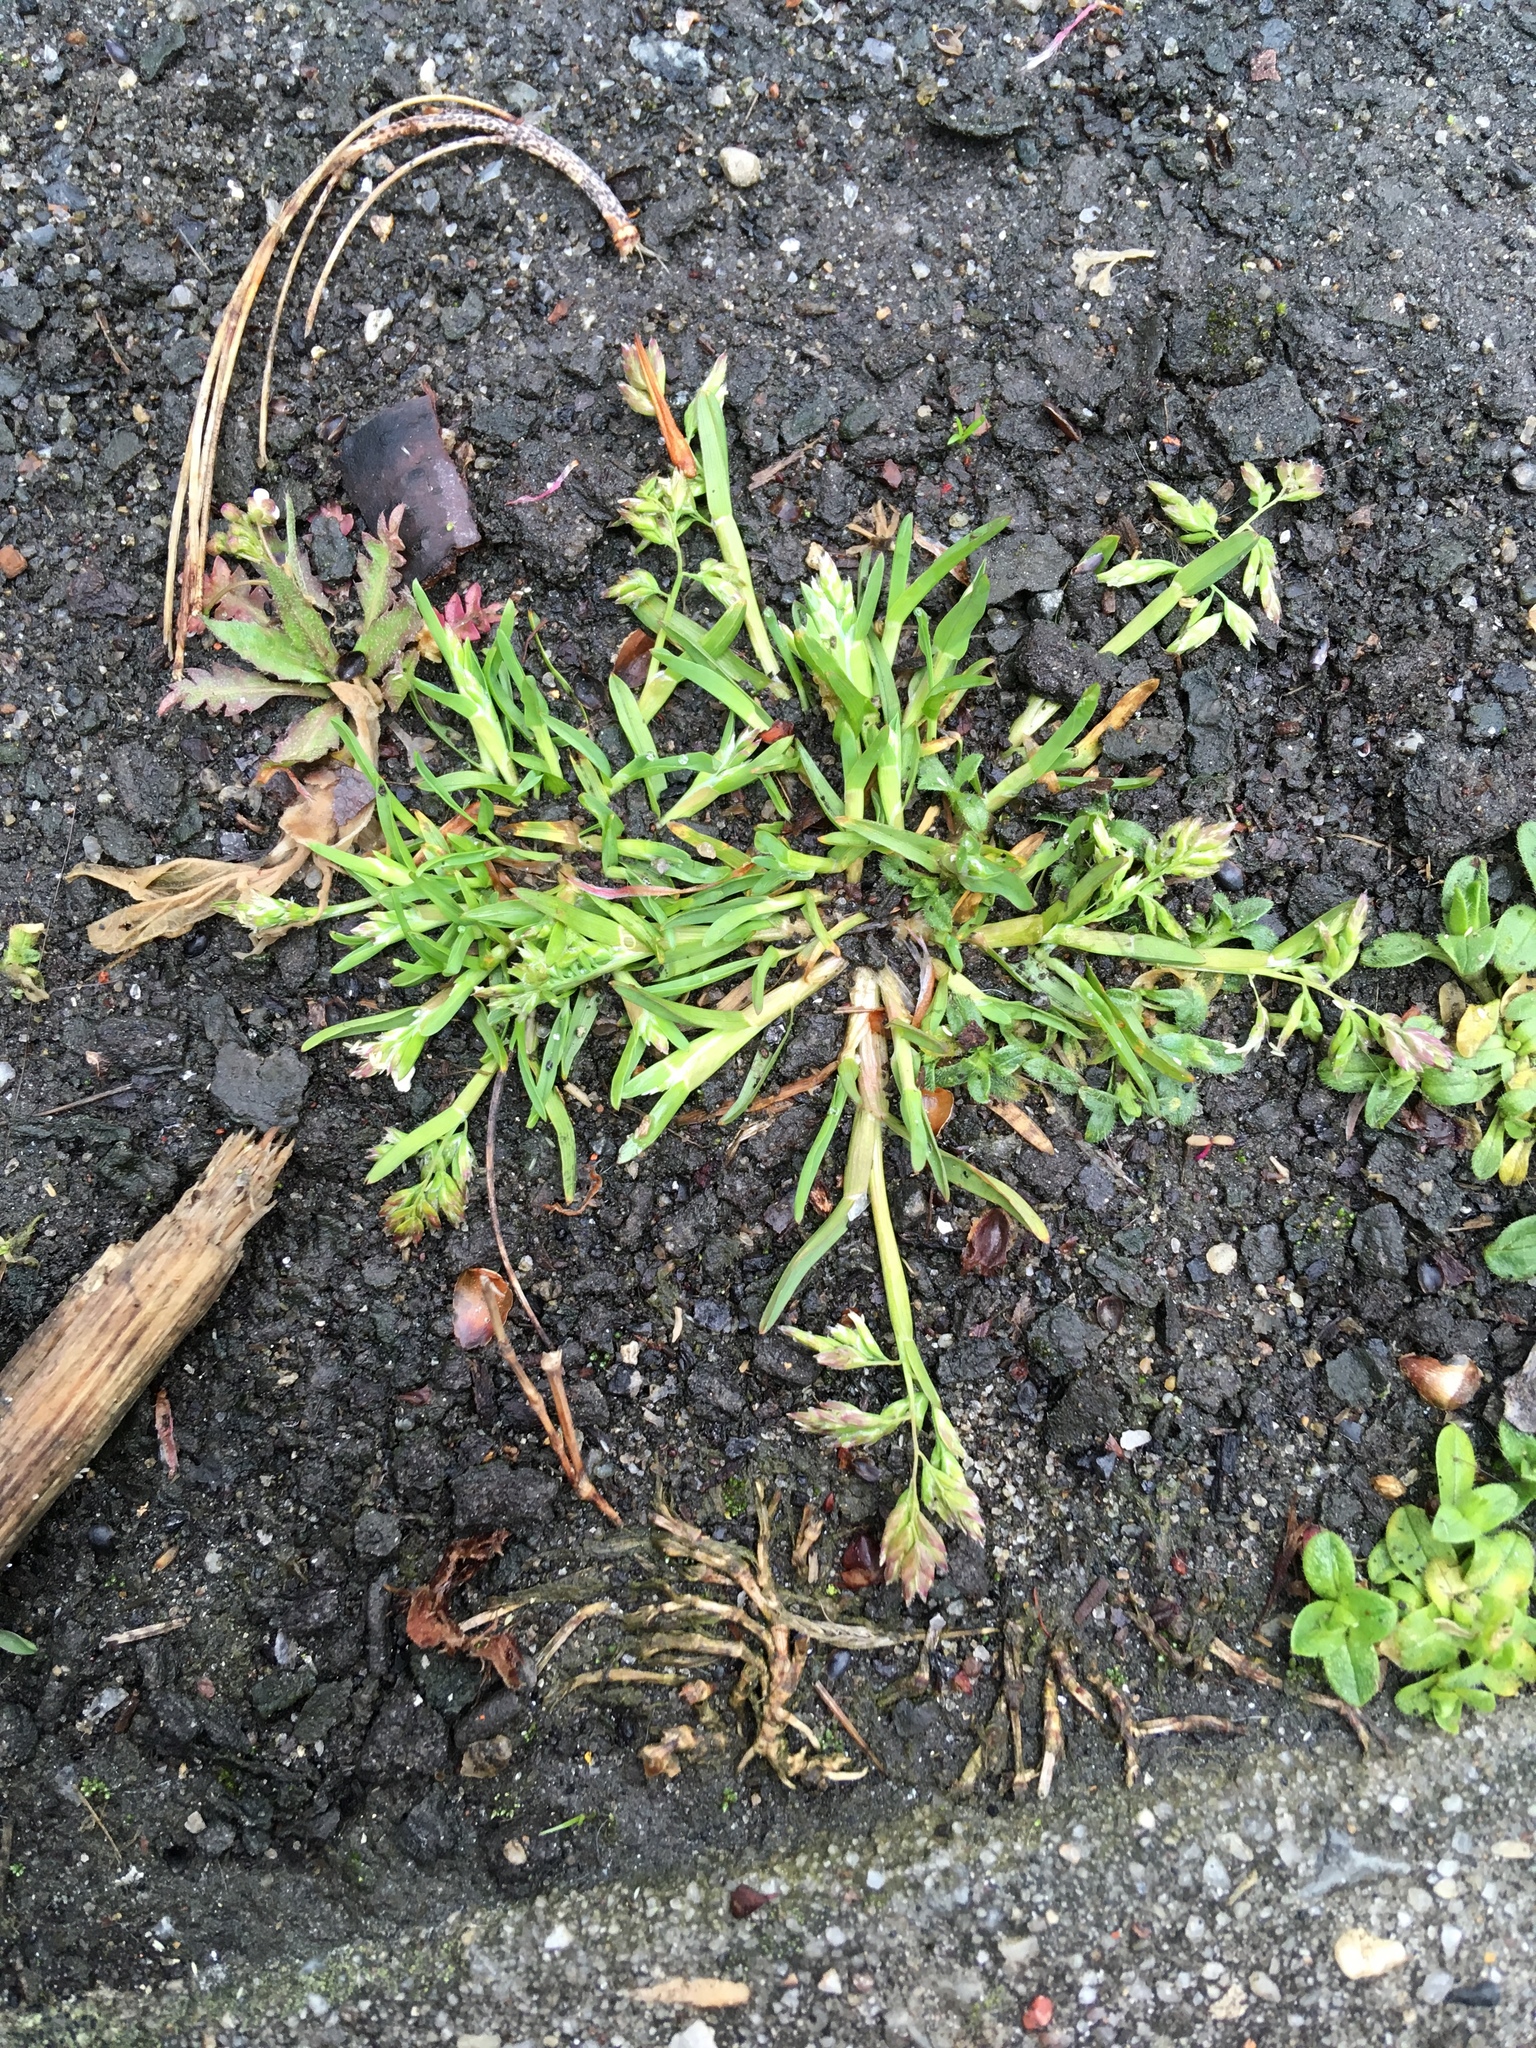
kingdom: Plantae
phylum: Tracheophyta
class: Liliopsida
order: Poales
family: Poaceae
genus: Poa
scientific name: Poa annua
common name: Annual bluegrass
